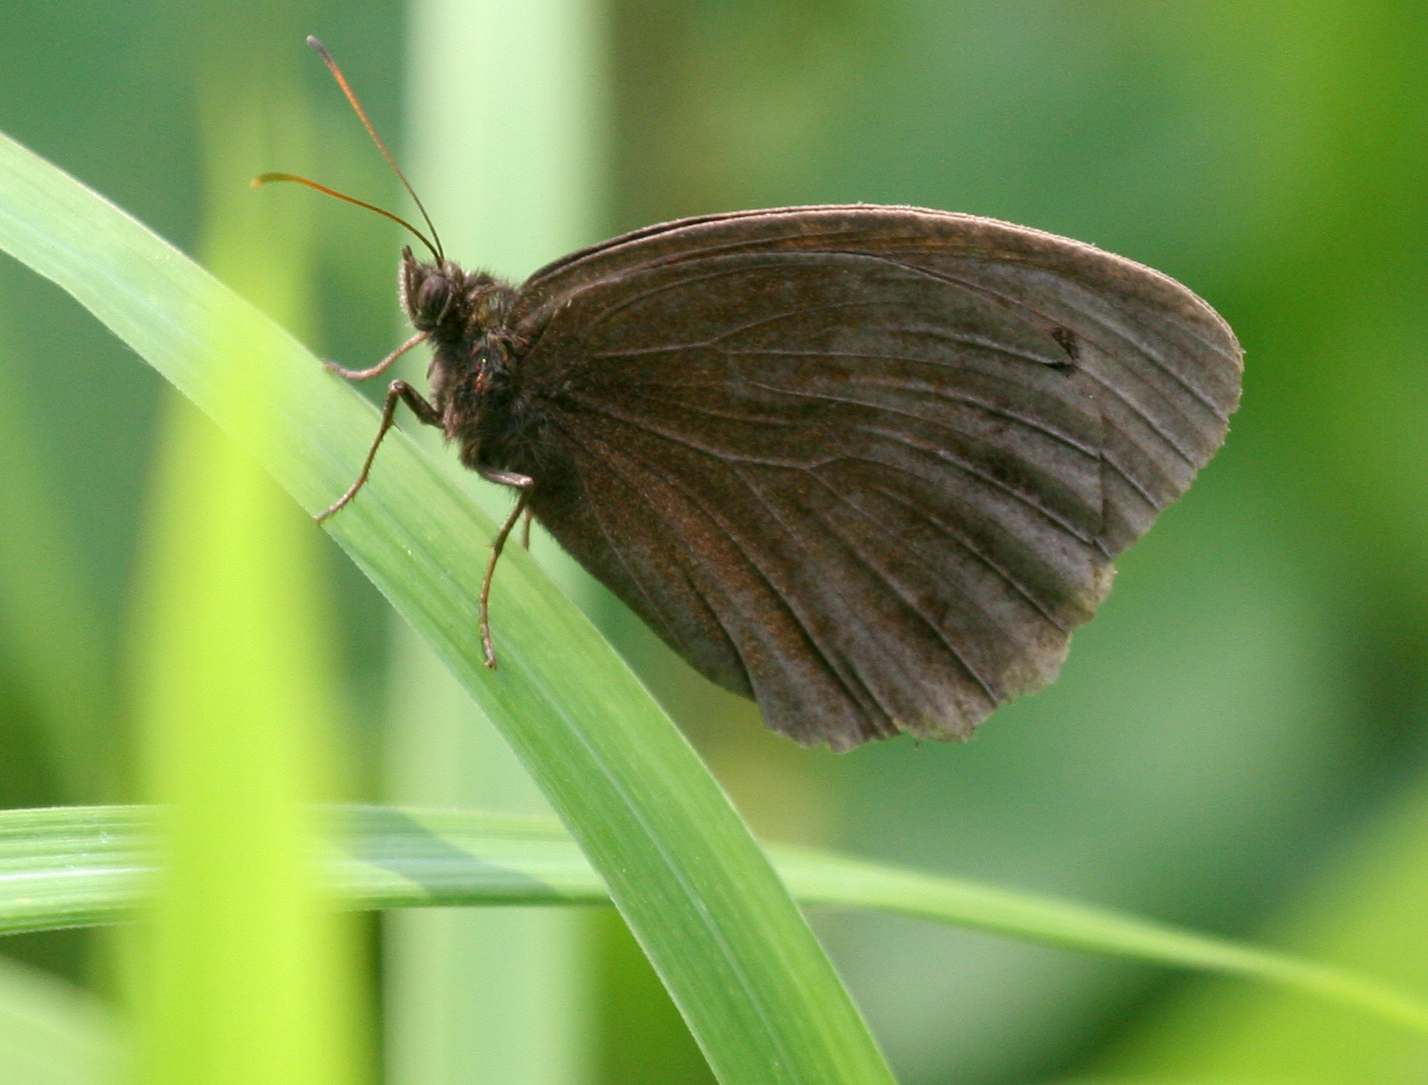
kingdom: Animalia
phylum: Arthropoda
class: Insecta
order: Lepidoptera
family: Nymphalidae
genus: Minois
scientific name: Minois dryas
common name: Dryad
